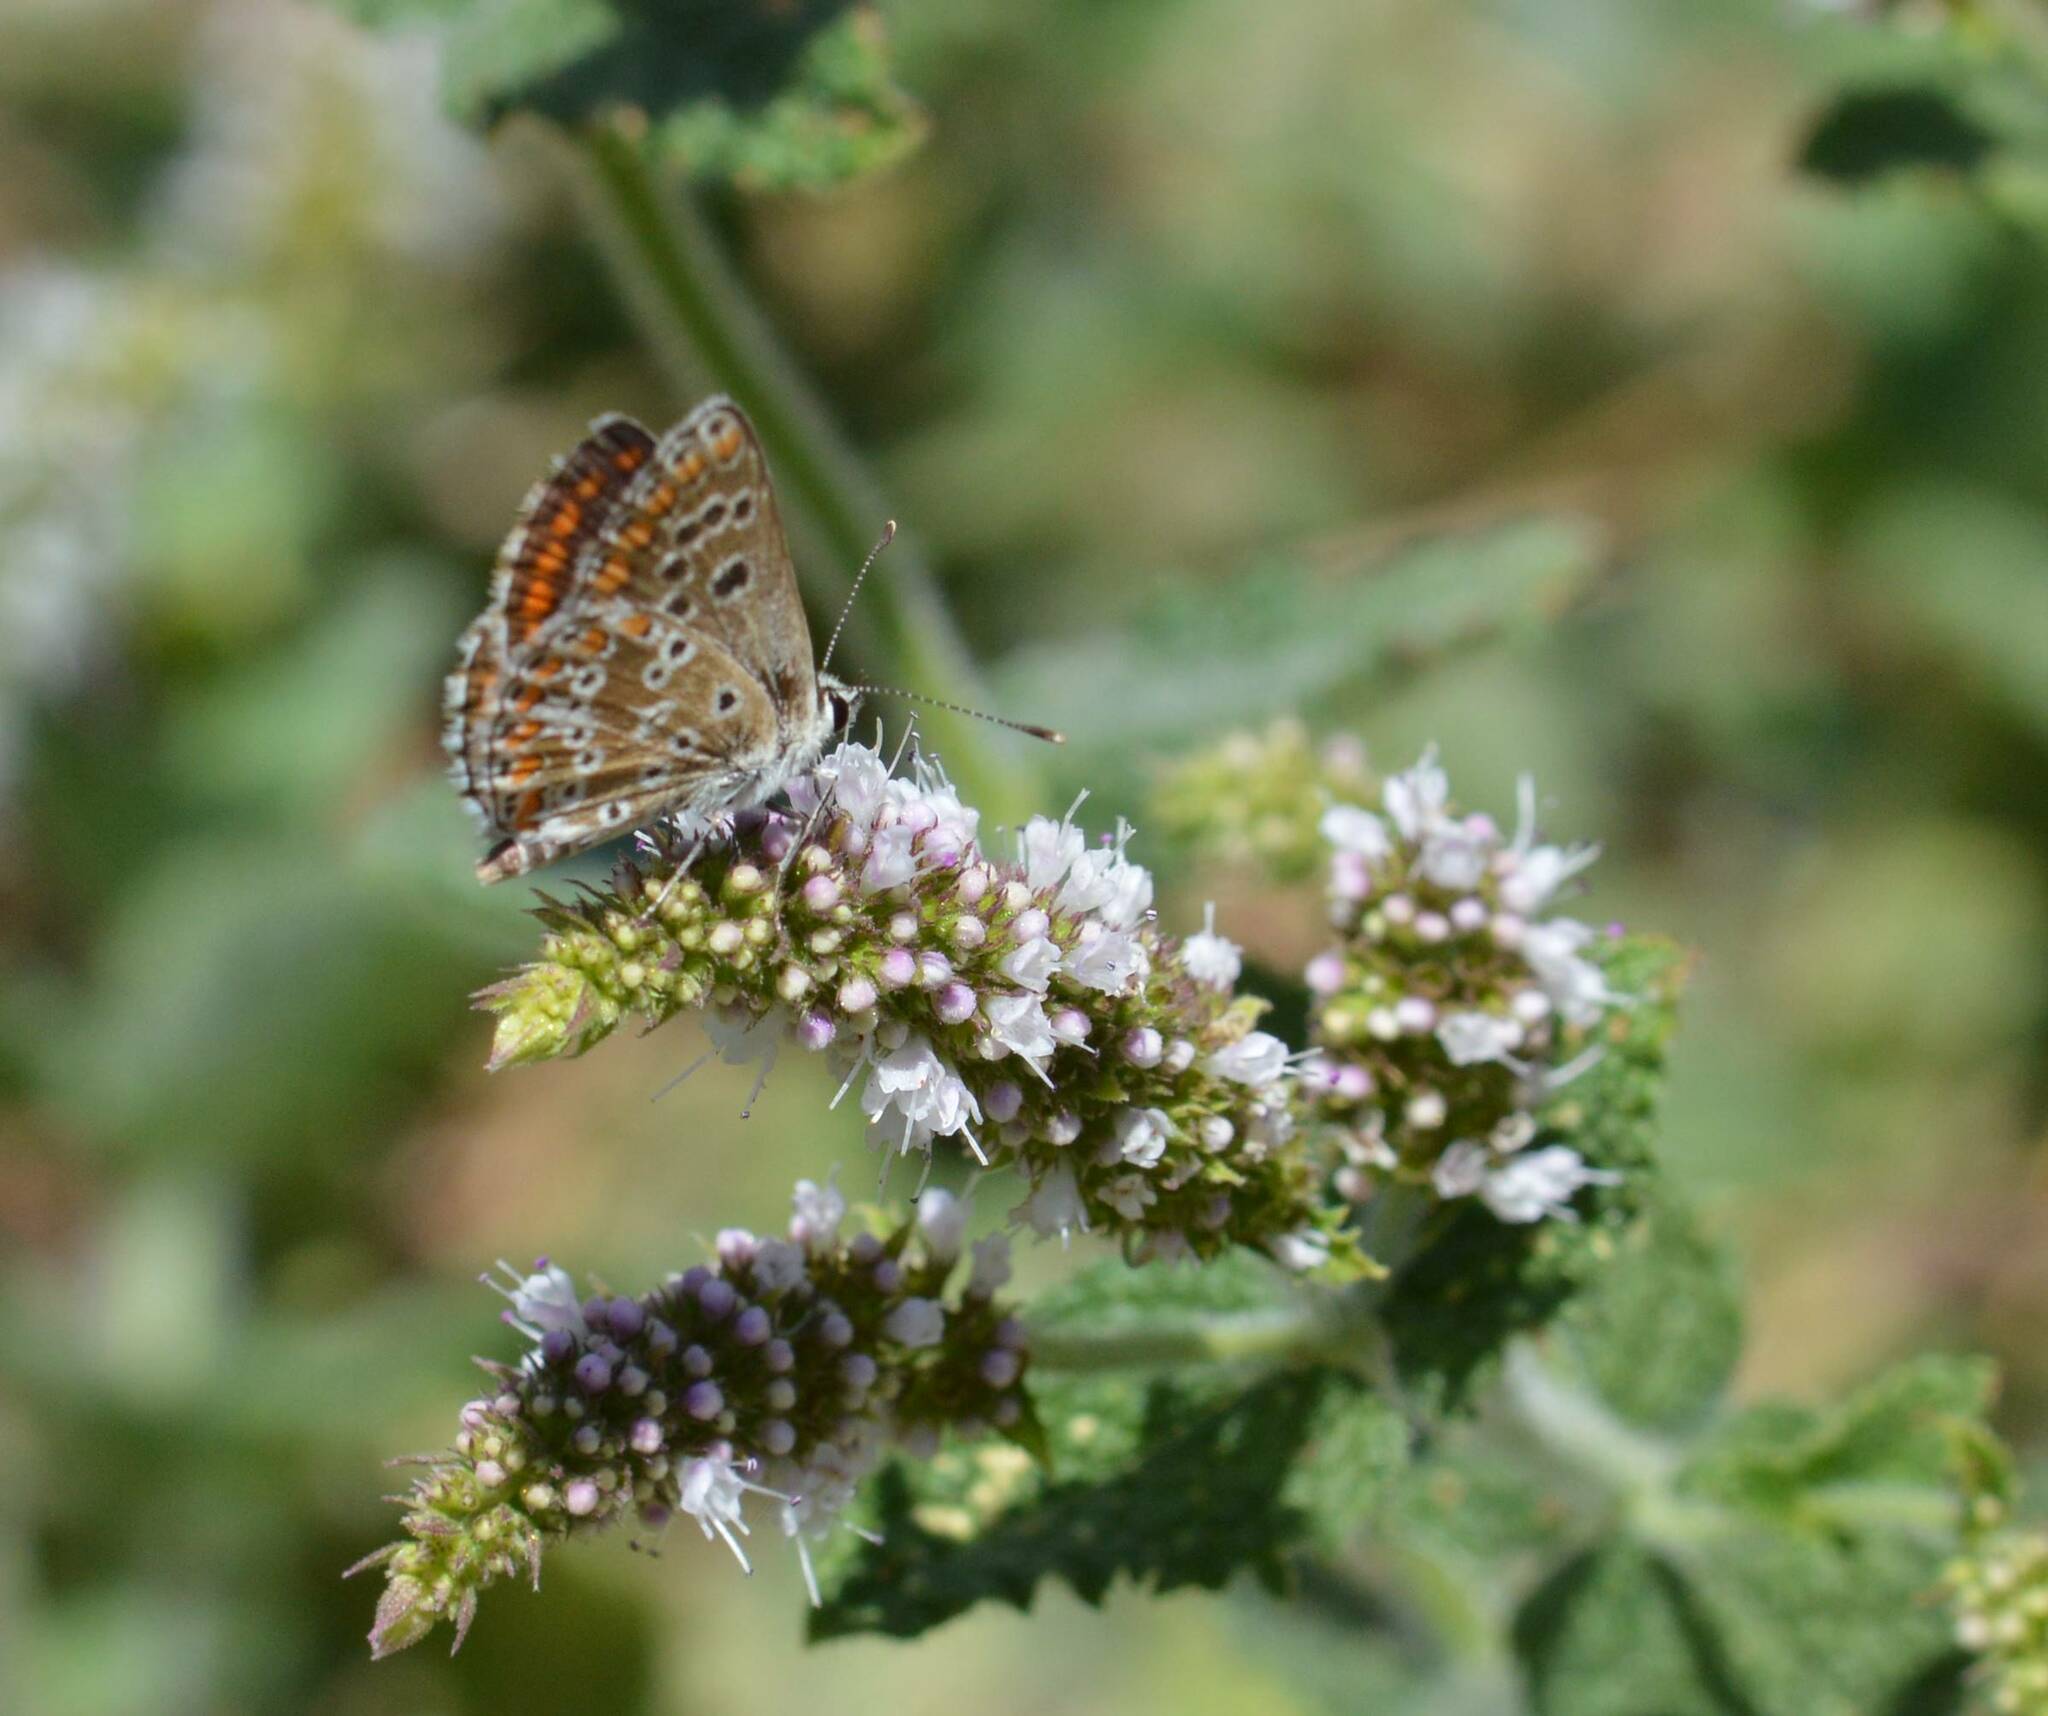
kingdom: Animalia
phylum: Arthropoda
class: Insecta
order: Lepidoptera
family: Lycaenidae
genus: Aricia
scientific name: Aricia cramera
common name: Eschscholtz´s brown  argus
